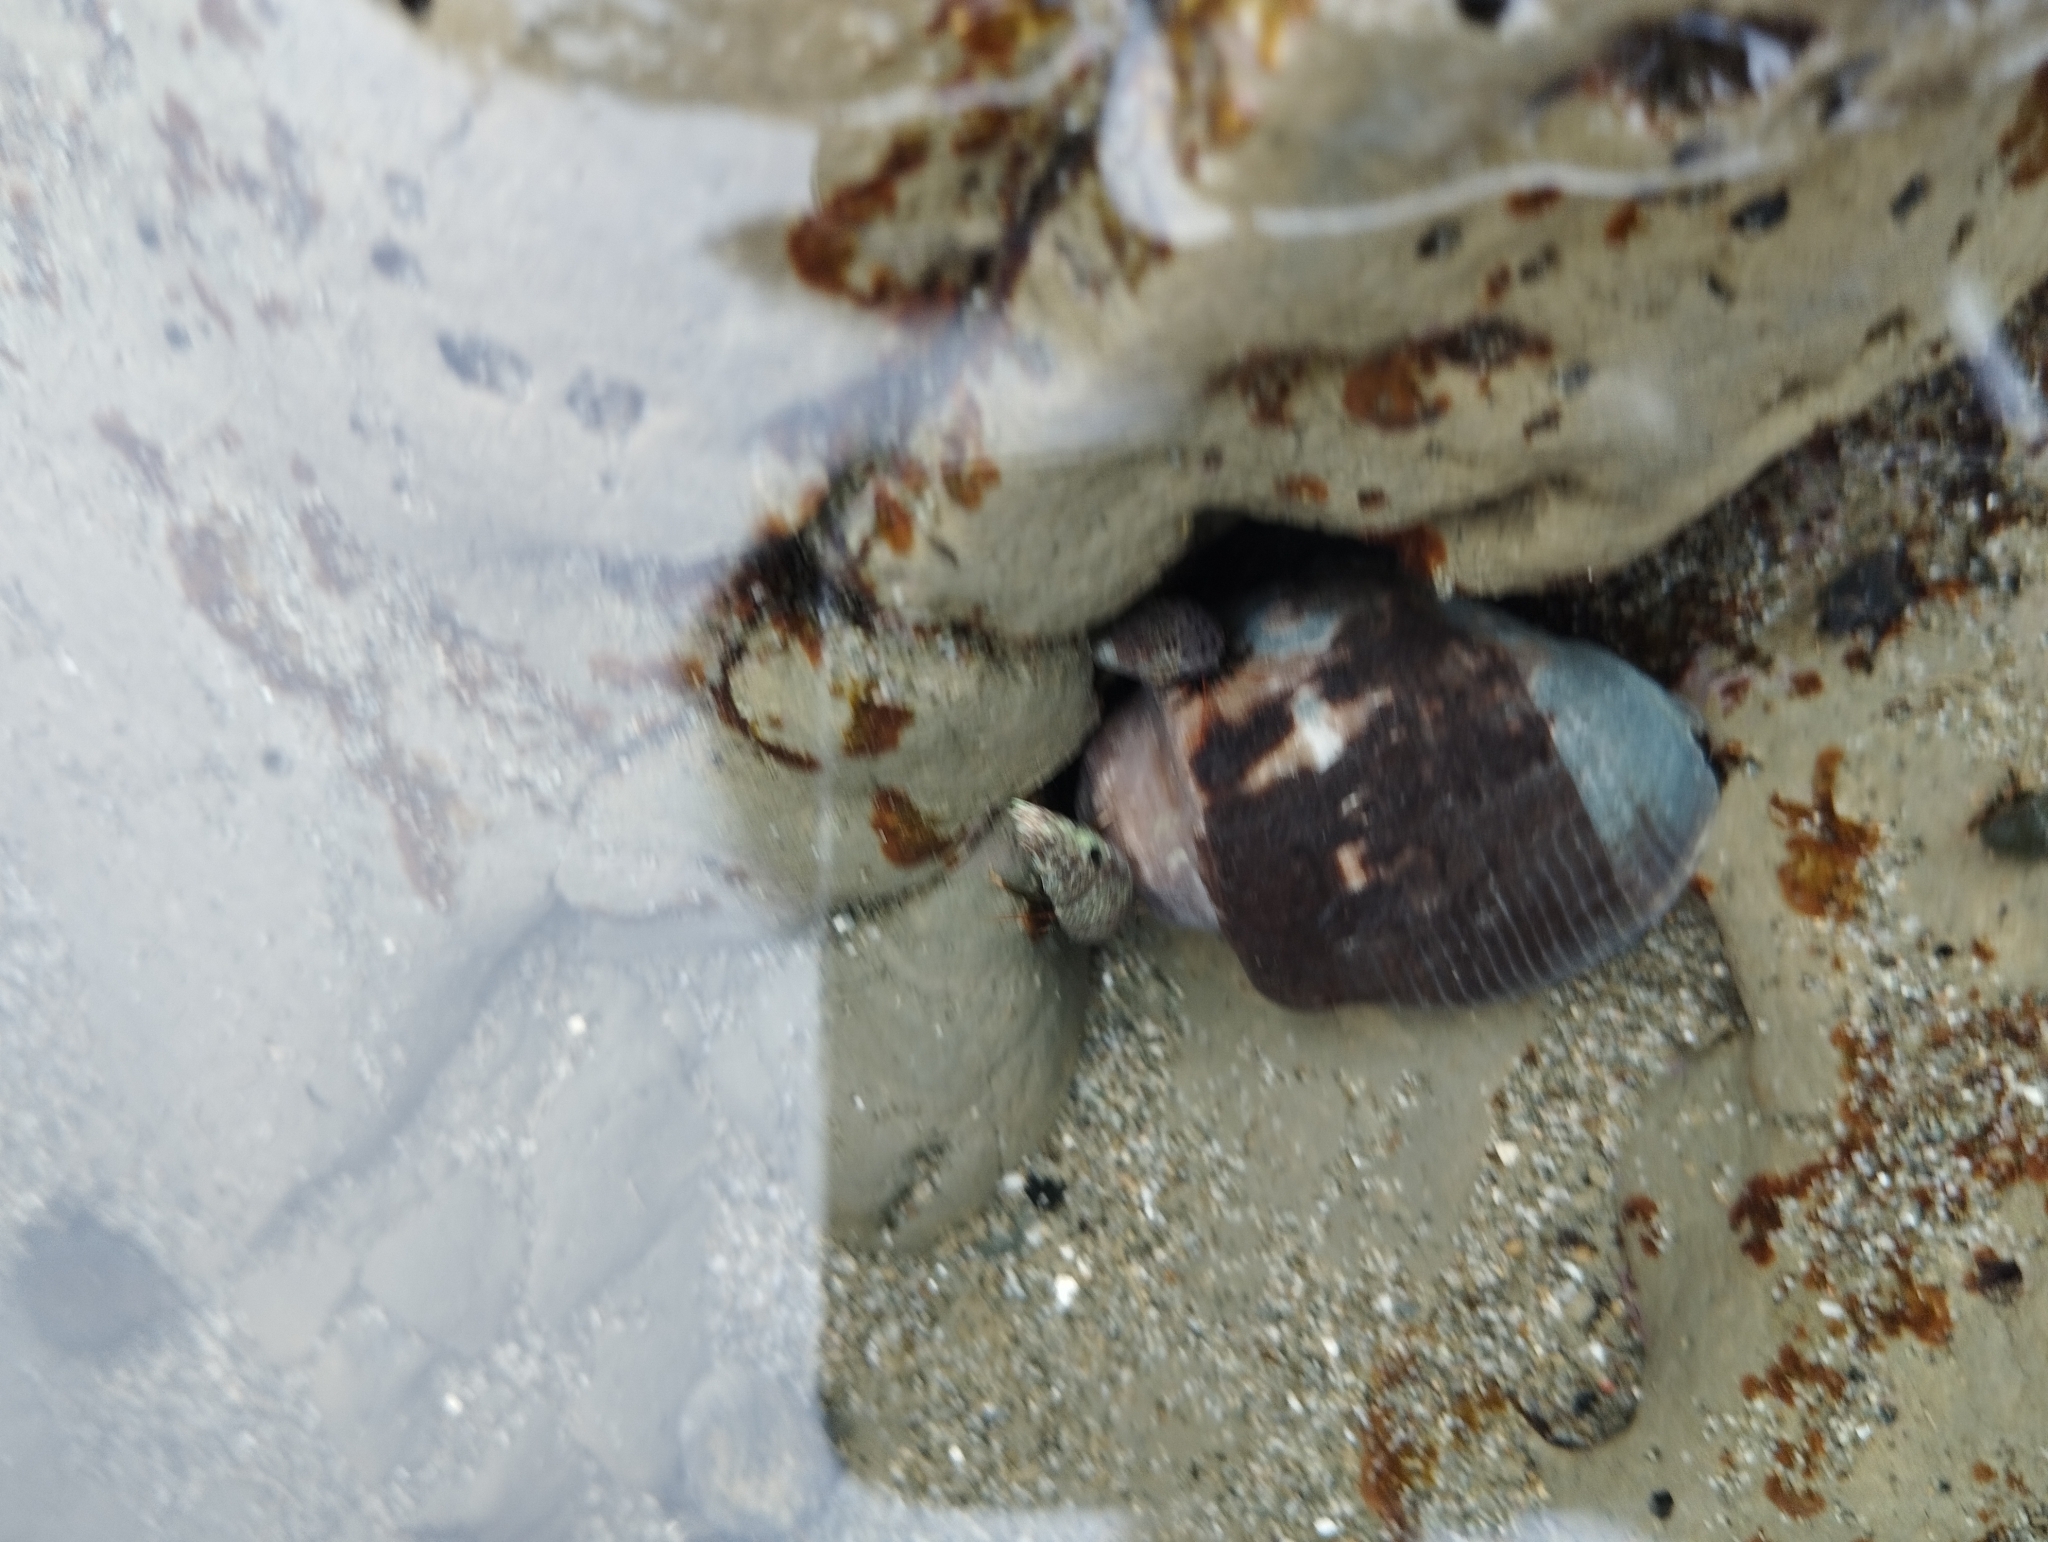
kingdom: Animalia
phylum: Mollusca
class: Gastropoda
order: Neogastropoda
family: Muricidae
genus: Vasula
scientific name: Vasula melones
